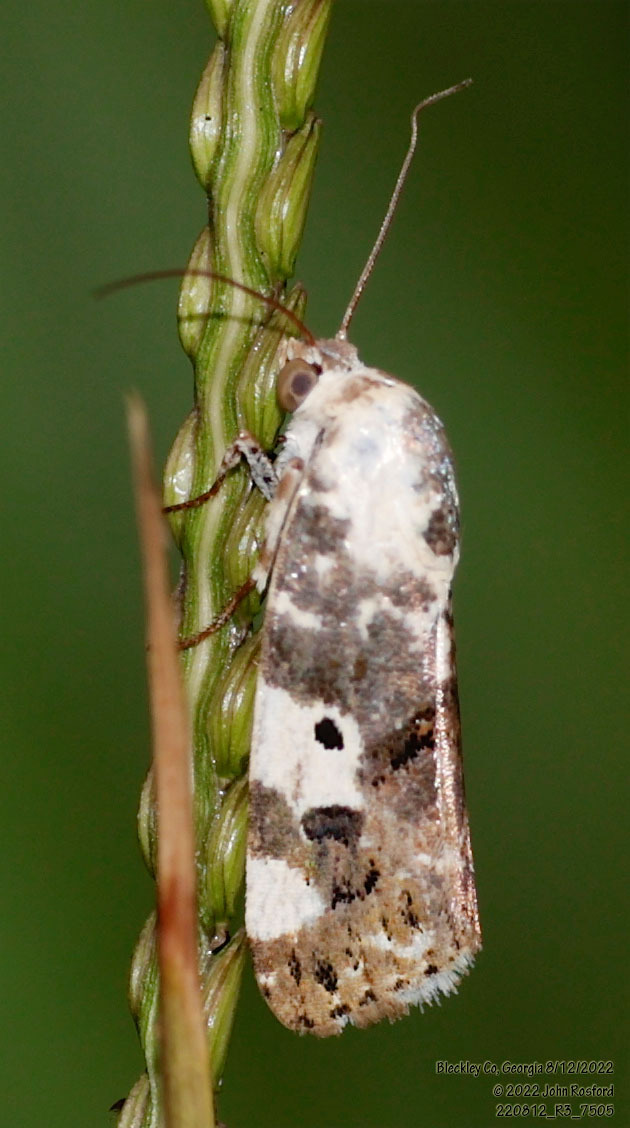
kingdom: Animalia
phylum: Arthropoda
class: Insecta
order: Lepidoptera
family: Noctuidae
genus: Acontia
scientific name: Acontia aprica
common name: Nun
